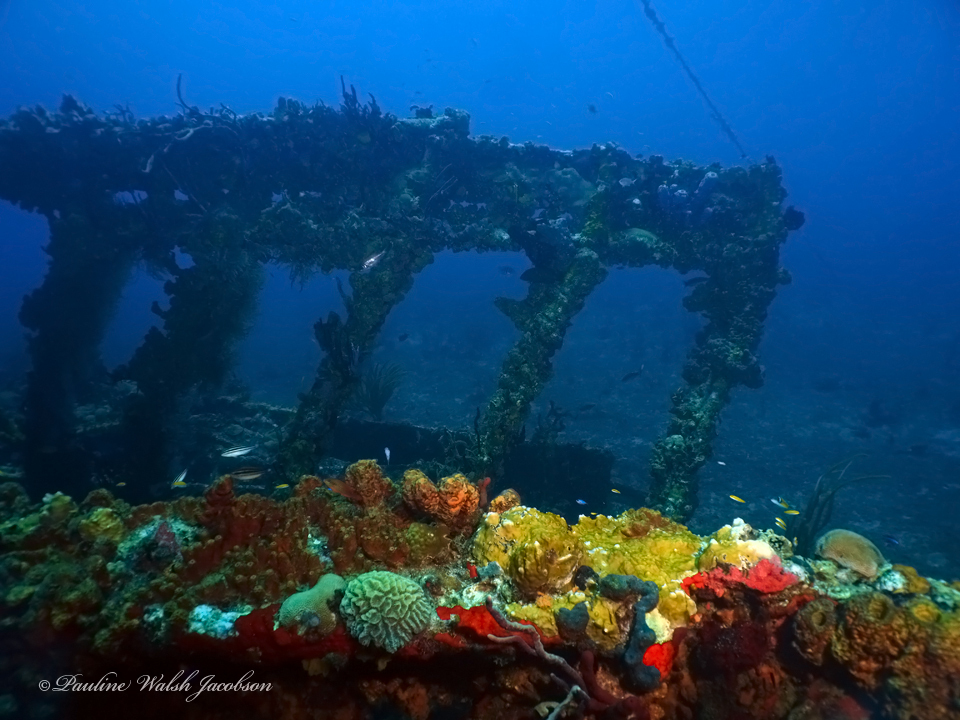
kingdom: Animalia
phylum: Chordata
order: Perciformes
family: Labridae
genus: Thalassoma
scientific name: Thalassoma bifasciatum
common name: Bluehead wrasse
